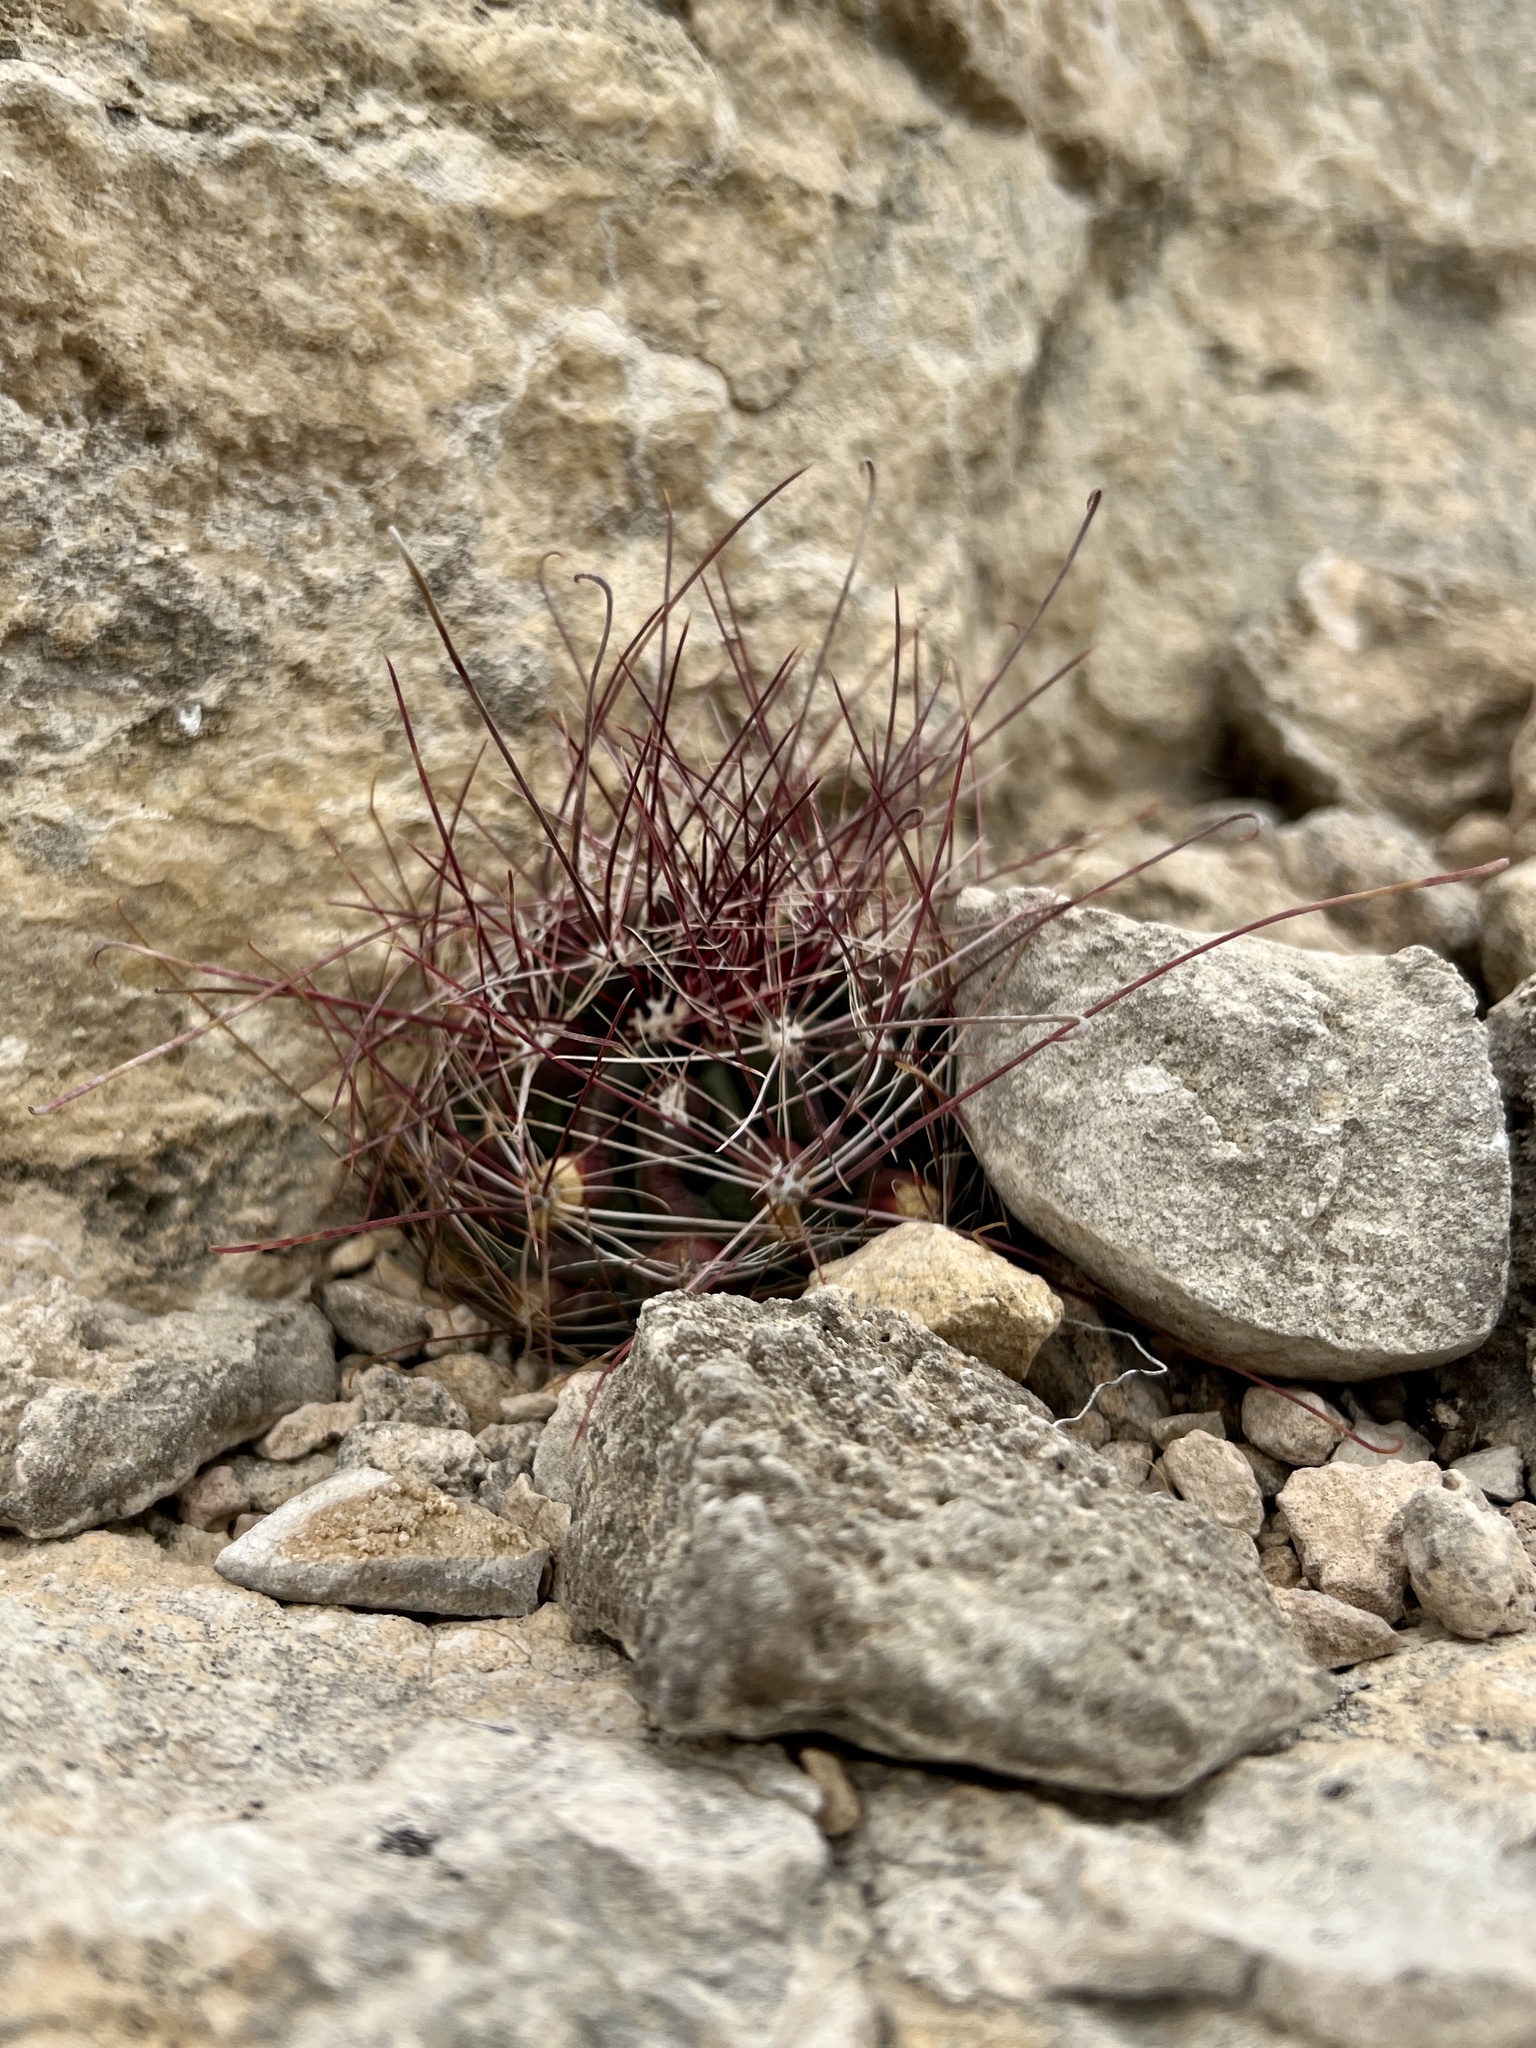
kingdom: Plantae
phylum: Tracheophyta
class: Magnoliopsida
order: Caryophyllales
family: Cactaceae
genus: Bisnaga
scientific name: Bisnaga hamatacantha
